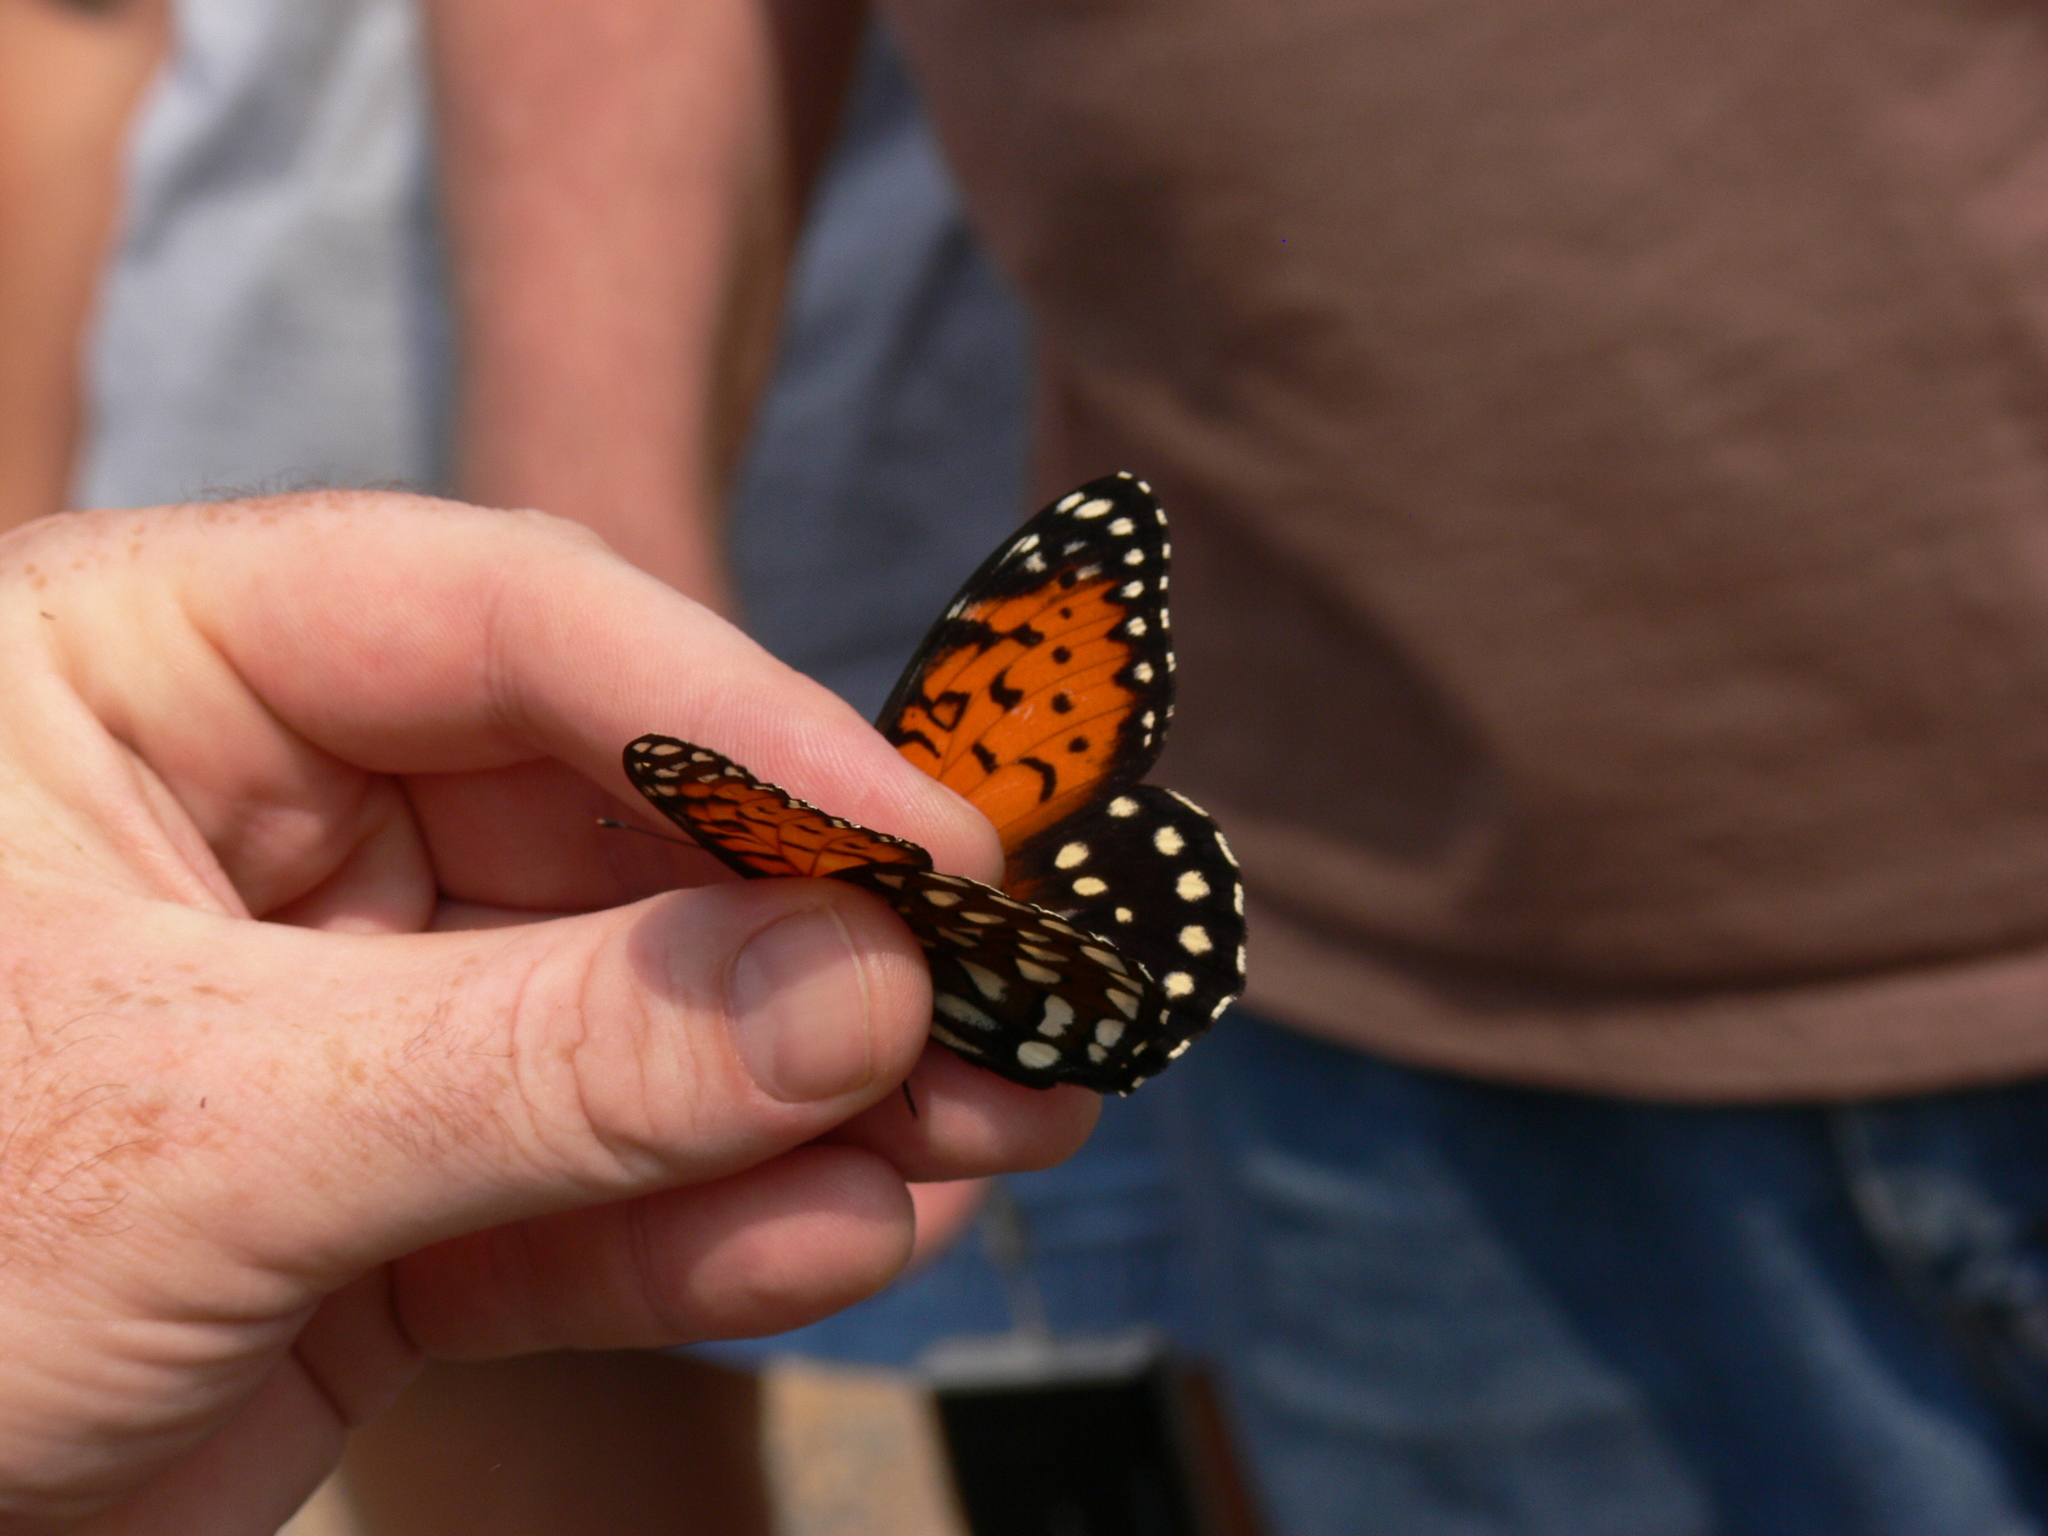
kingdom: Animalia
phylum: Arthropoda
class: Insecta
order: Lepidoptera
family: Nymphalidae
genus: Speyeria
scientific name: Speyeria idalia
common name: Regal fritillary
